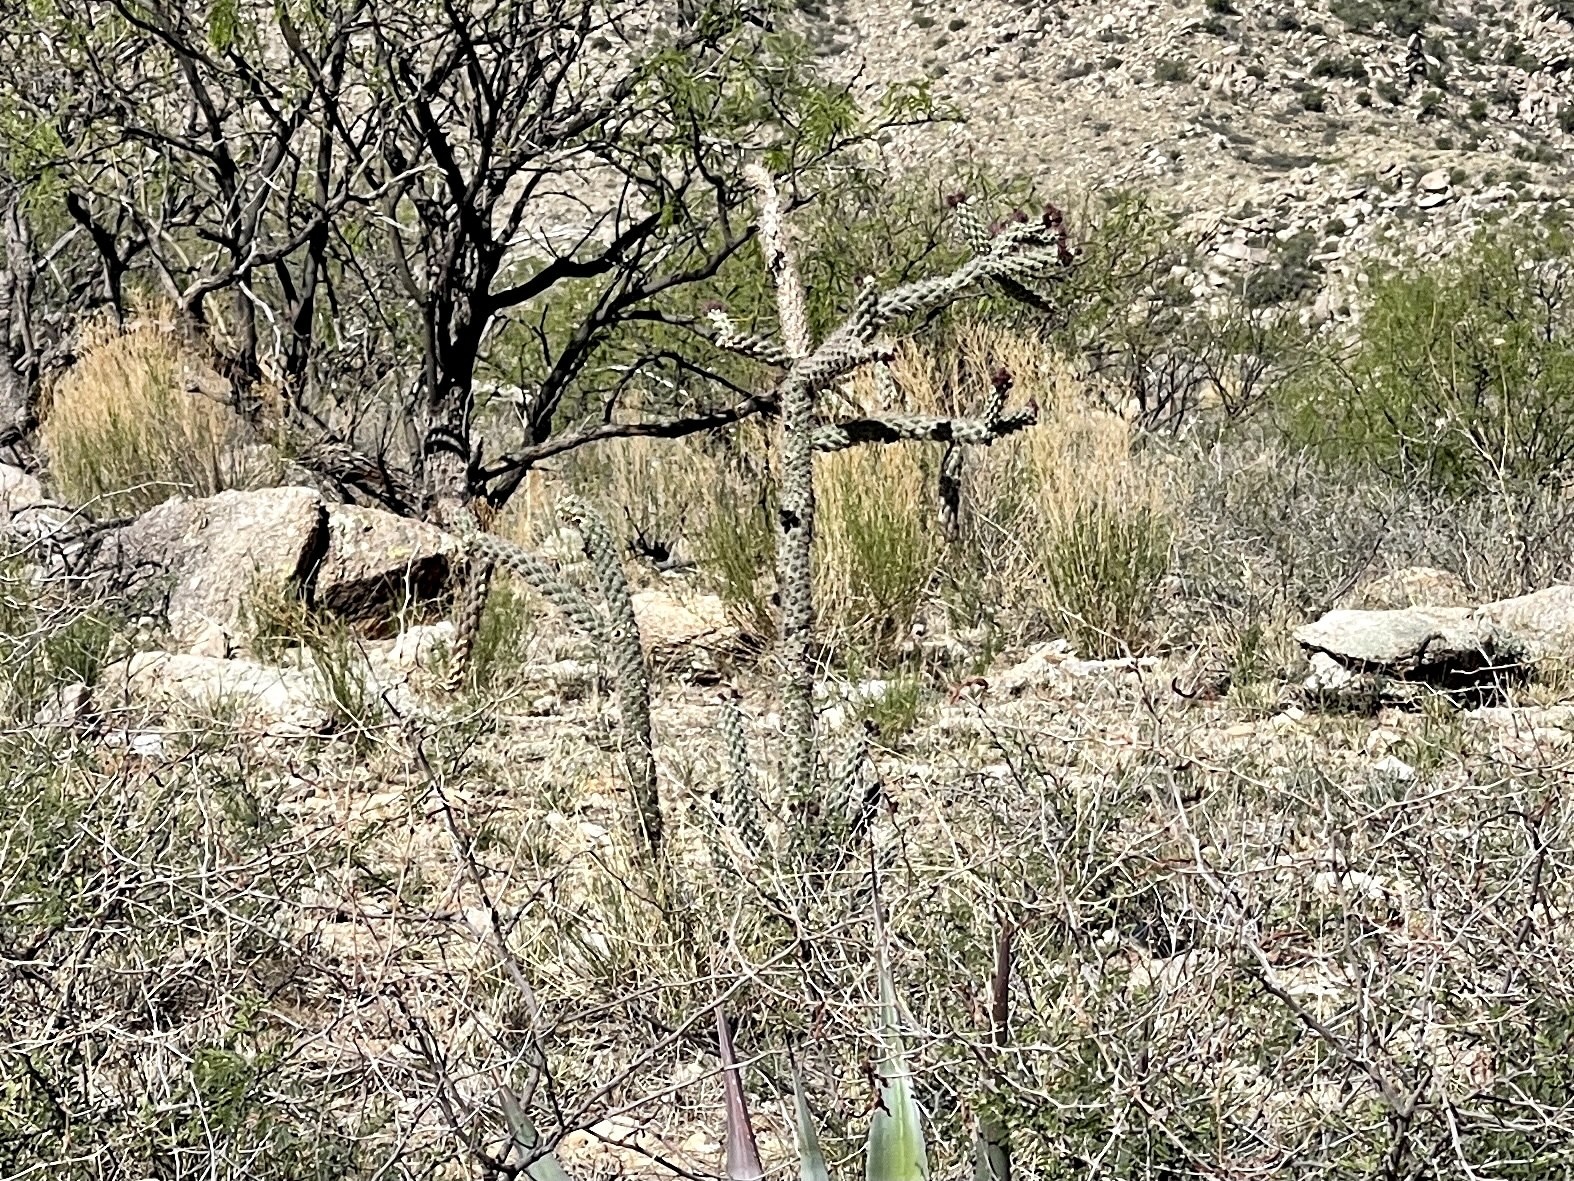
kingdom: Plantae
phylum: Tracheophyta
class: Magnoliopsida
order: Caryophyllales
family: Cactaceae
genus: Cylindropuntia
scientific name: Cylindropuntia imbricata
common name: Candelabrum cactus
